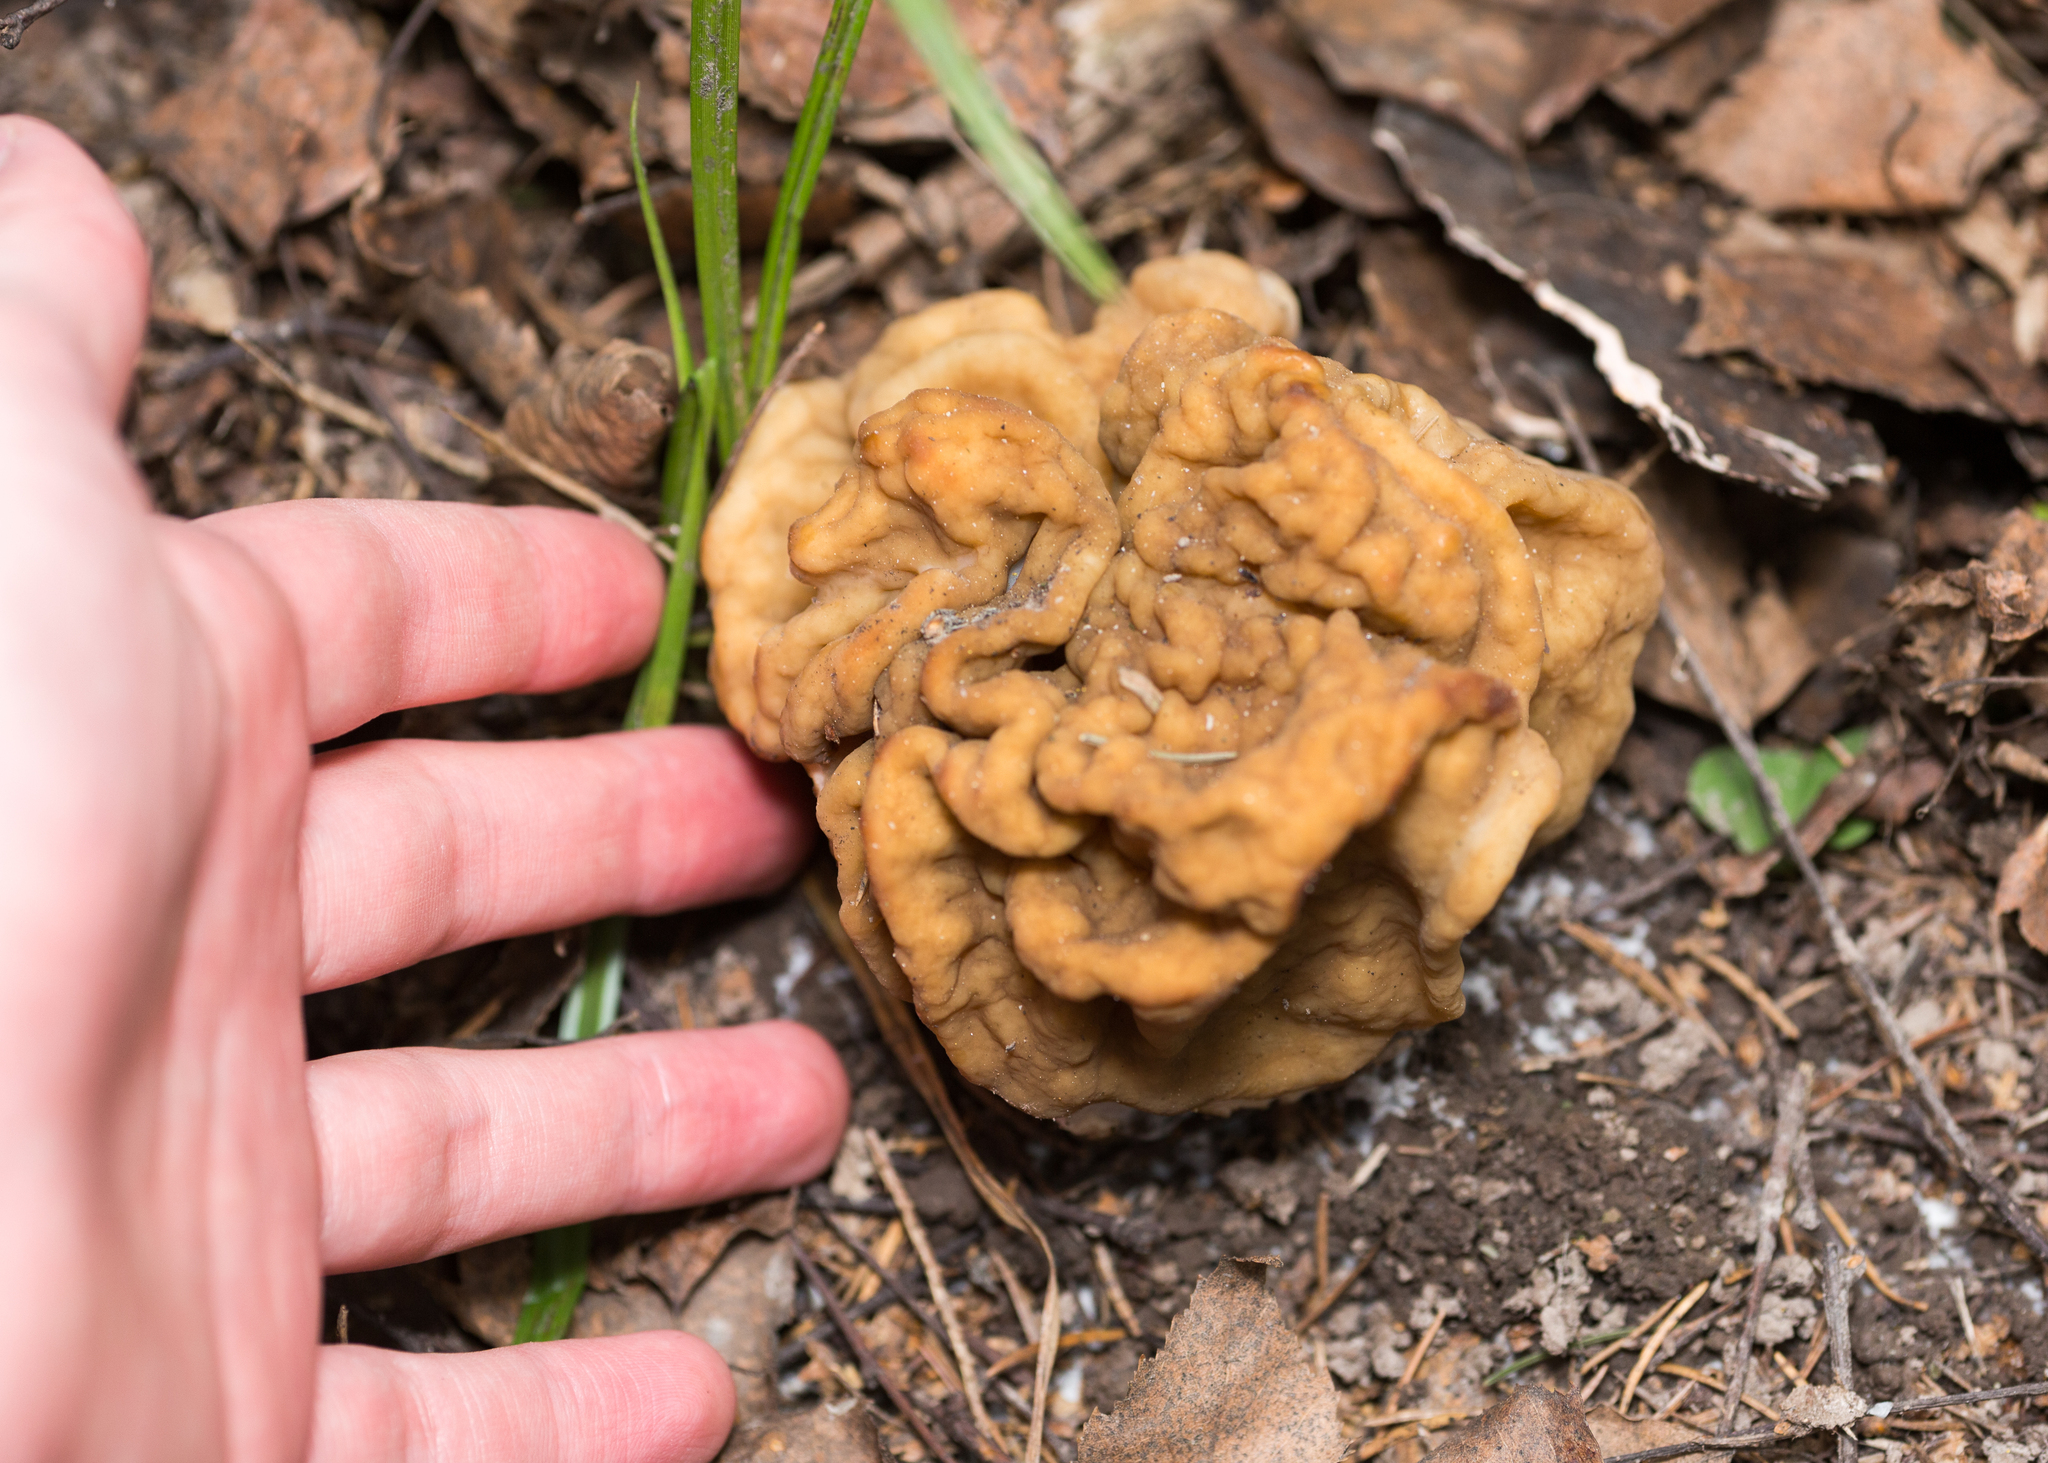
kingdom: Fungi
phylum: Ascomycota
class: Pezizomycetes
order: Pezizales
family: Discinaceae
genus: Gyromitra
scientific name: Gyromitra gigas
